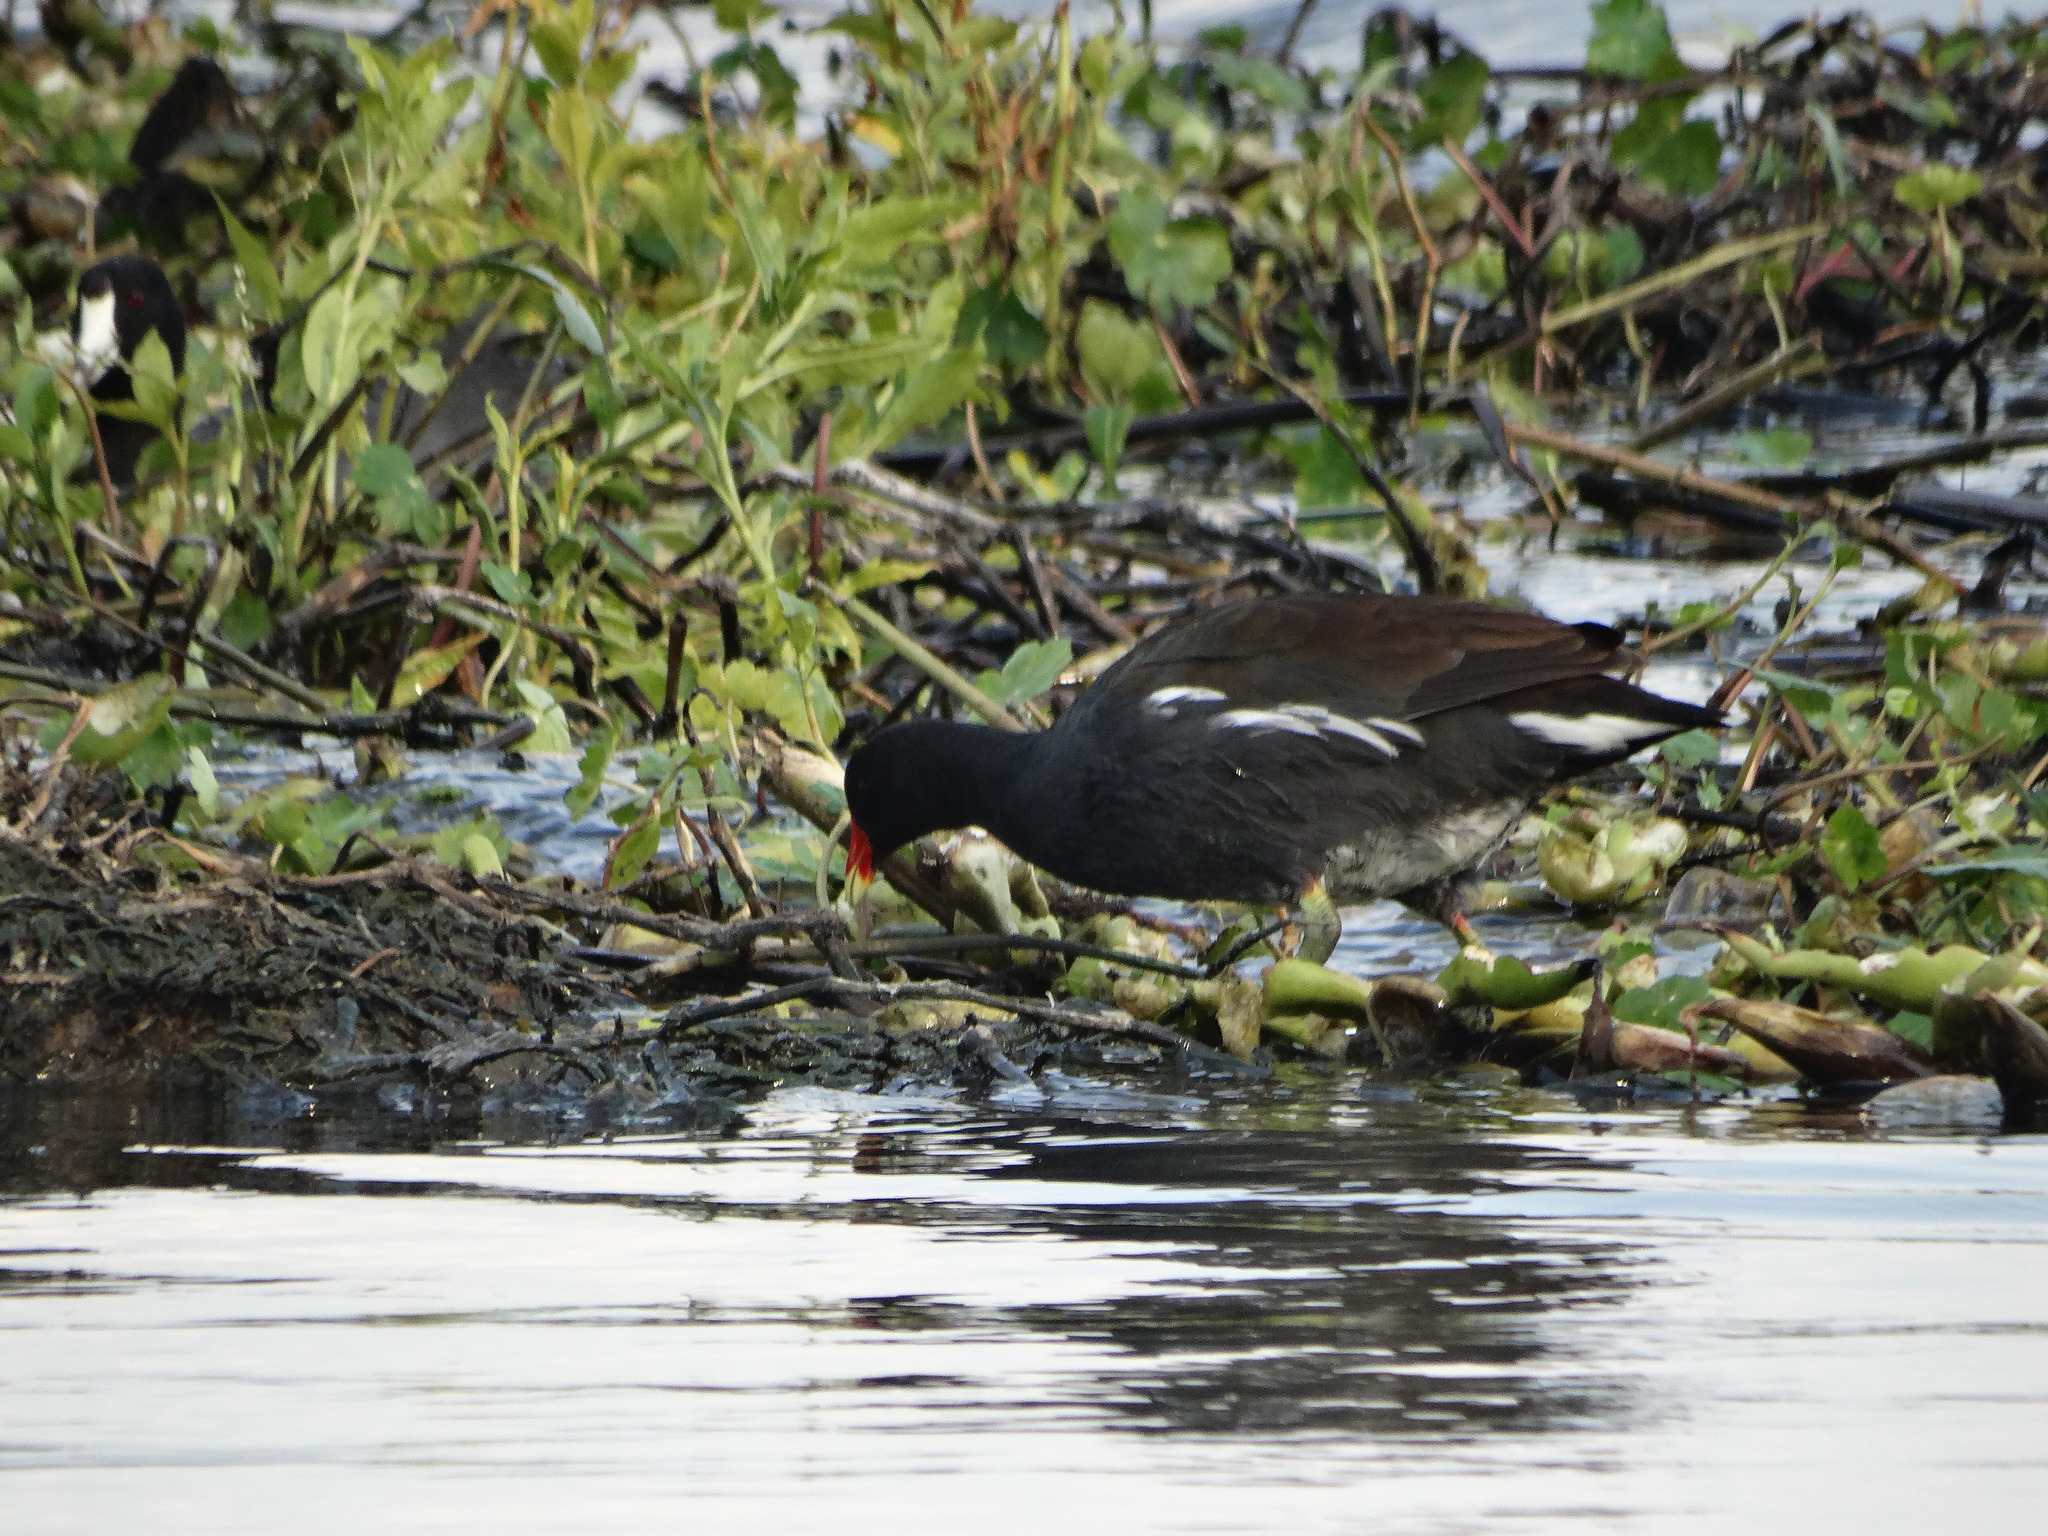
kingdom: Animalia
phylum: Chordata
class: Aves
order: Gruiformes
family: Rallidae
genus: Gallinula
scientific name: Gallinula chloropus
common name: Common moorhen
